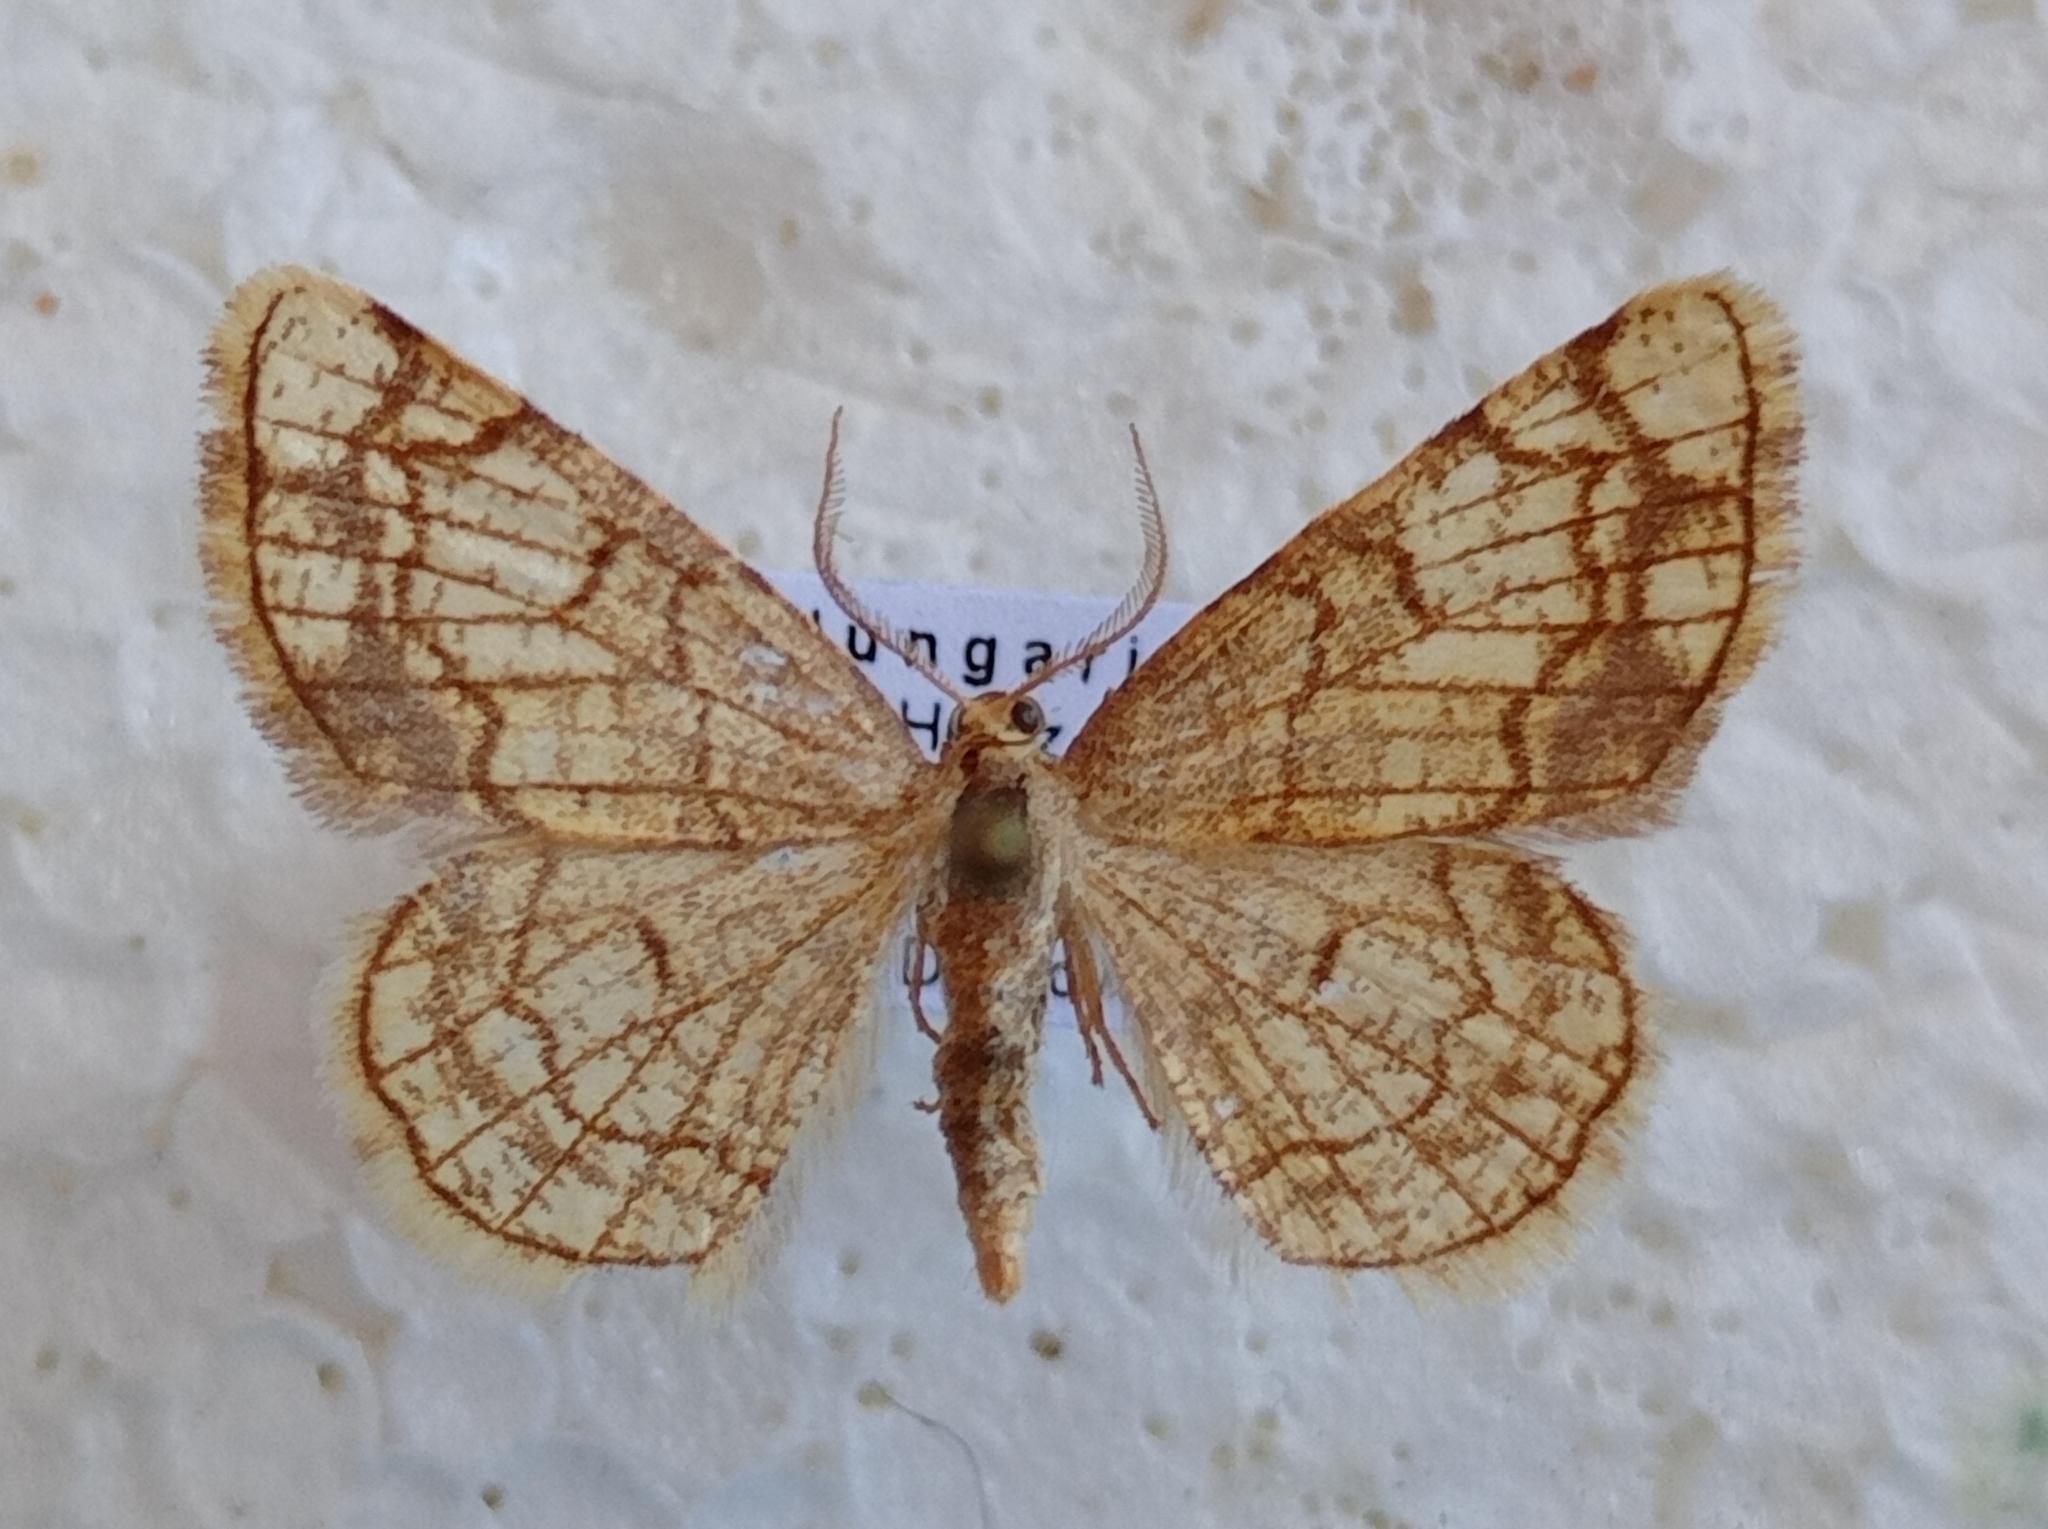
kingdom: Animalia
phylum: Arthropoda
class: Insecta
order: Lepidoptera
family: Geometridae
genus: Stegania
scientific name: Stegania dilectaria
